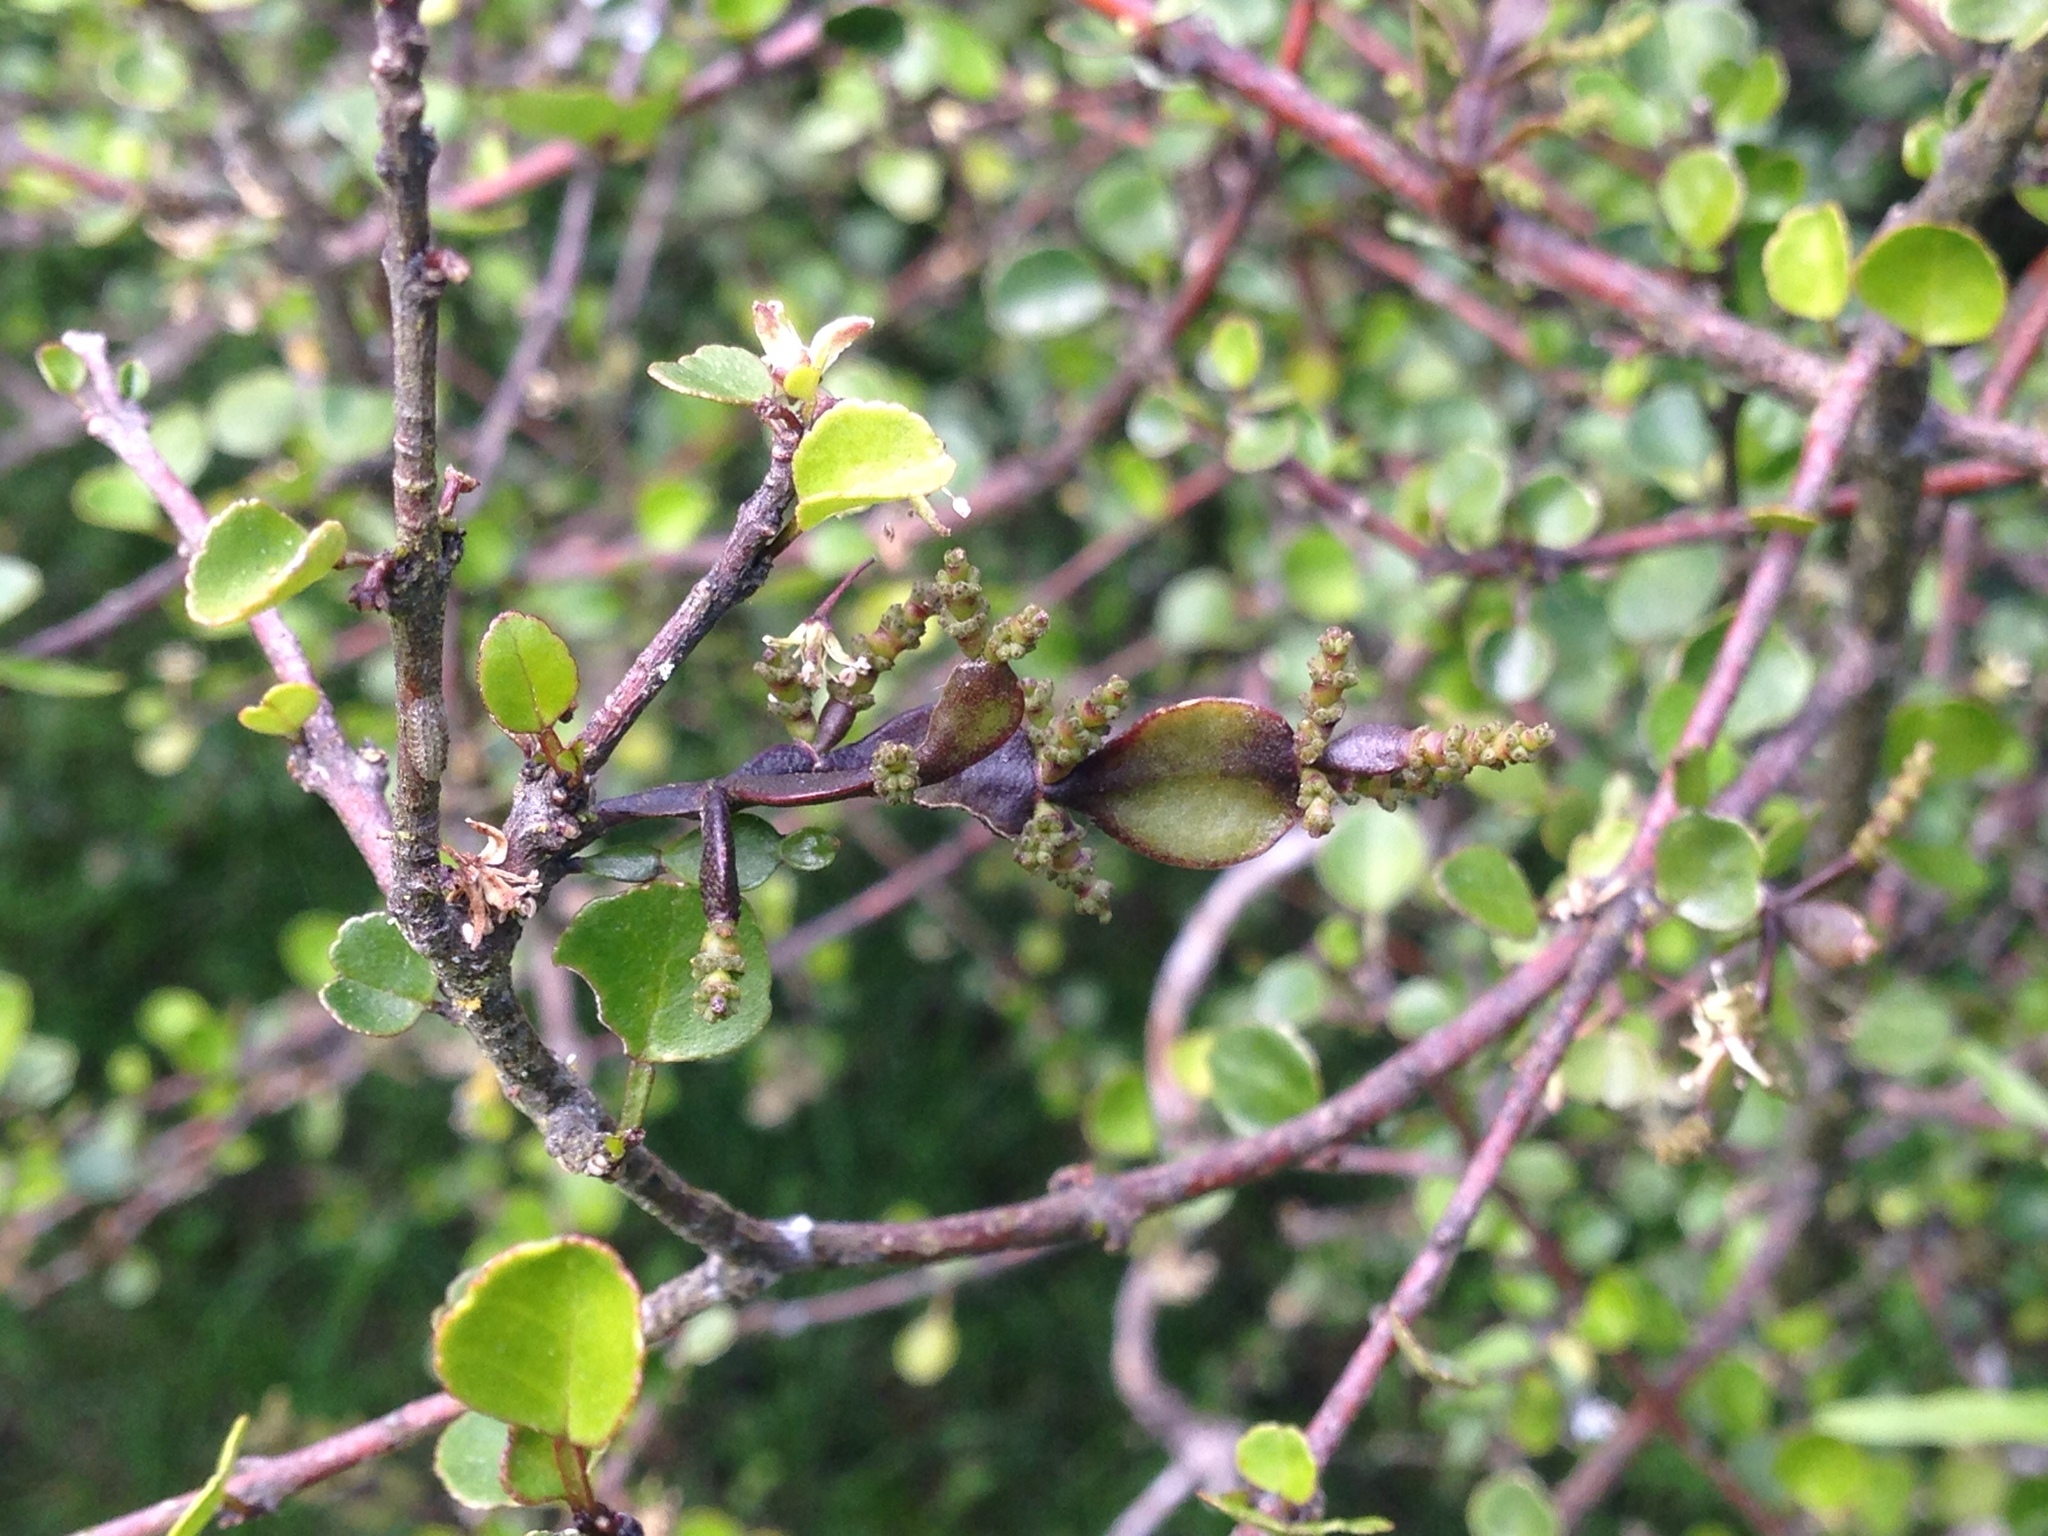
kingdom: Plantae
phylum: Tracheophyta
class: Magnoliopsida
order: Santalales
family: Viscaceae
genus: Korthalsella
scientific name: Korthalsella lindsayi
